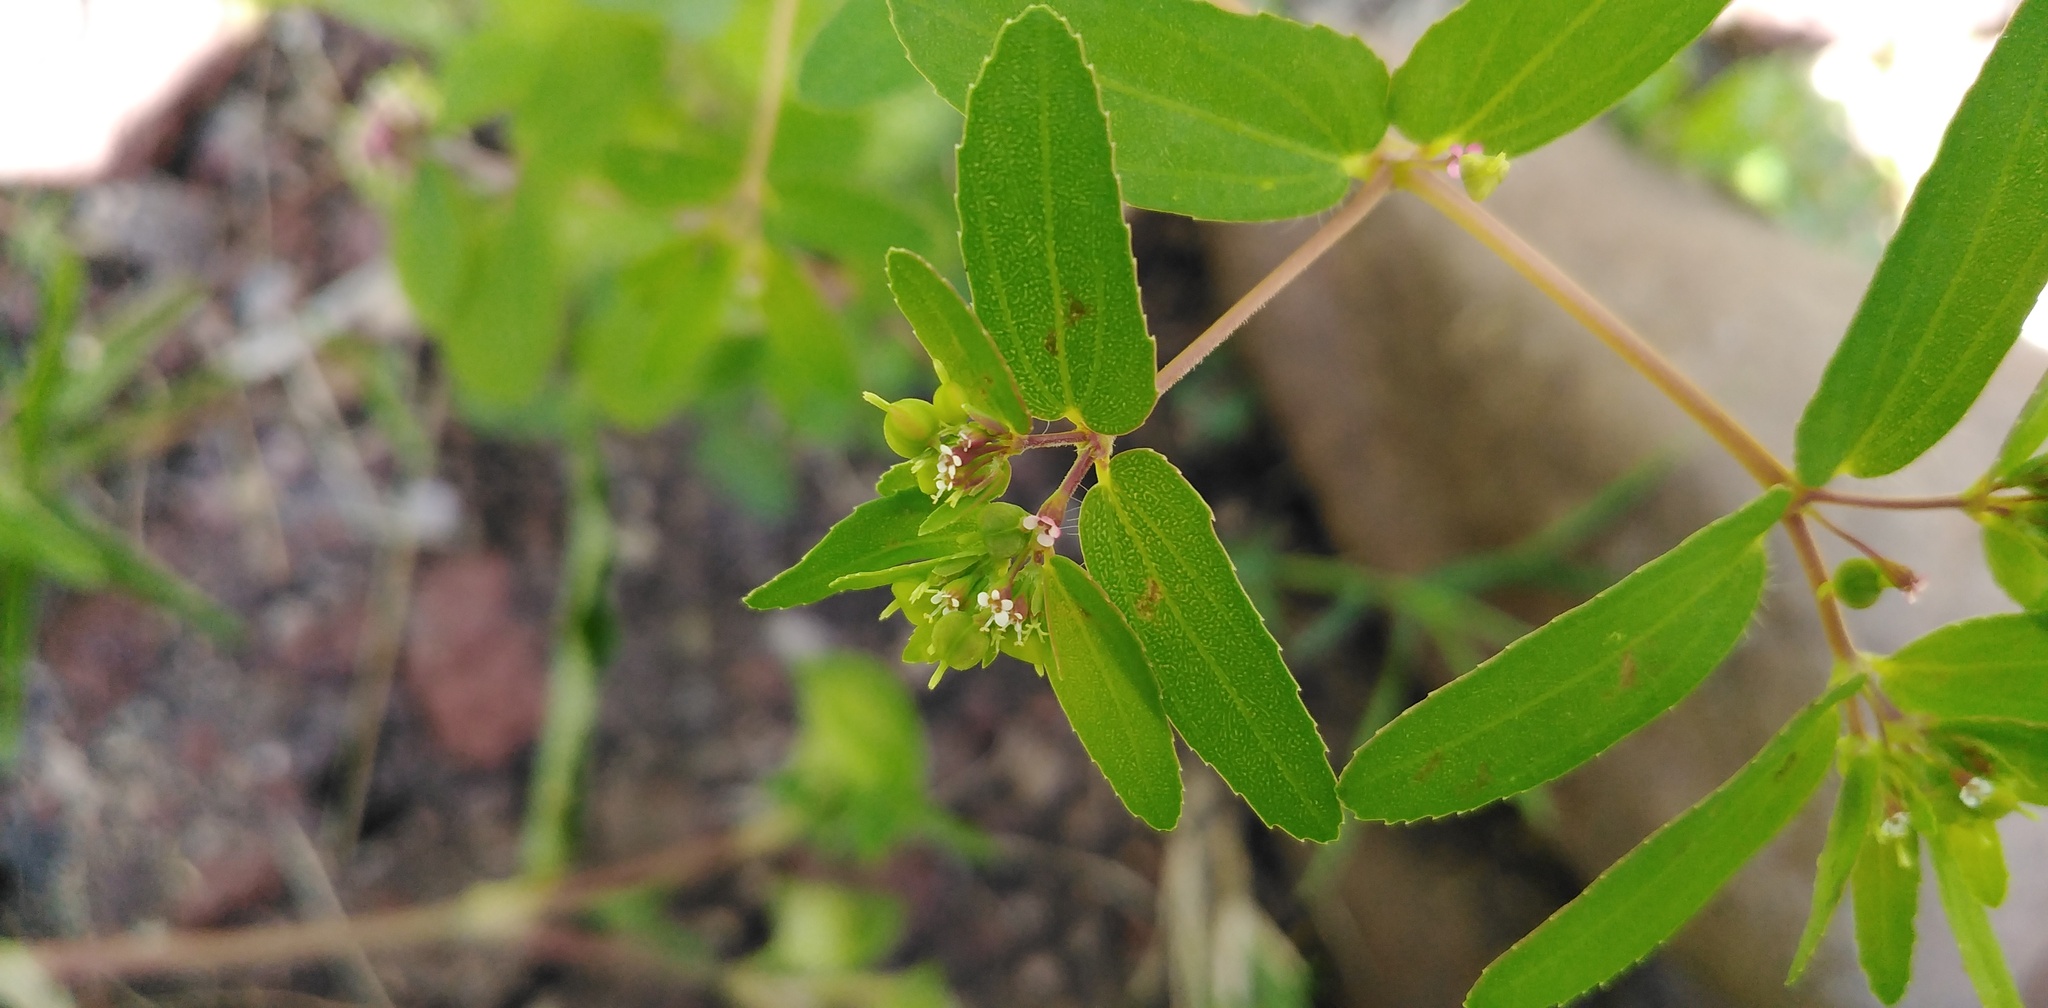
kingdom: Plantae
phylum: Tracheophyta
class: Magnoliopsida
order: Malpighiales
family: Euphorbiaceae
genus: Euphorbia
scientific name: Euphorbia nutans
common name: Eyebane
